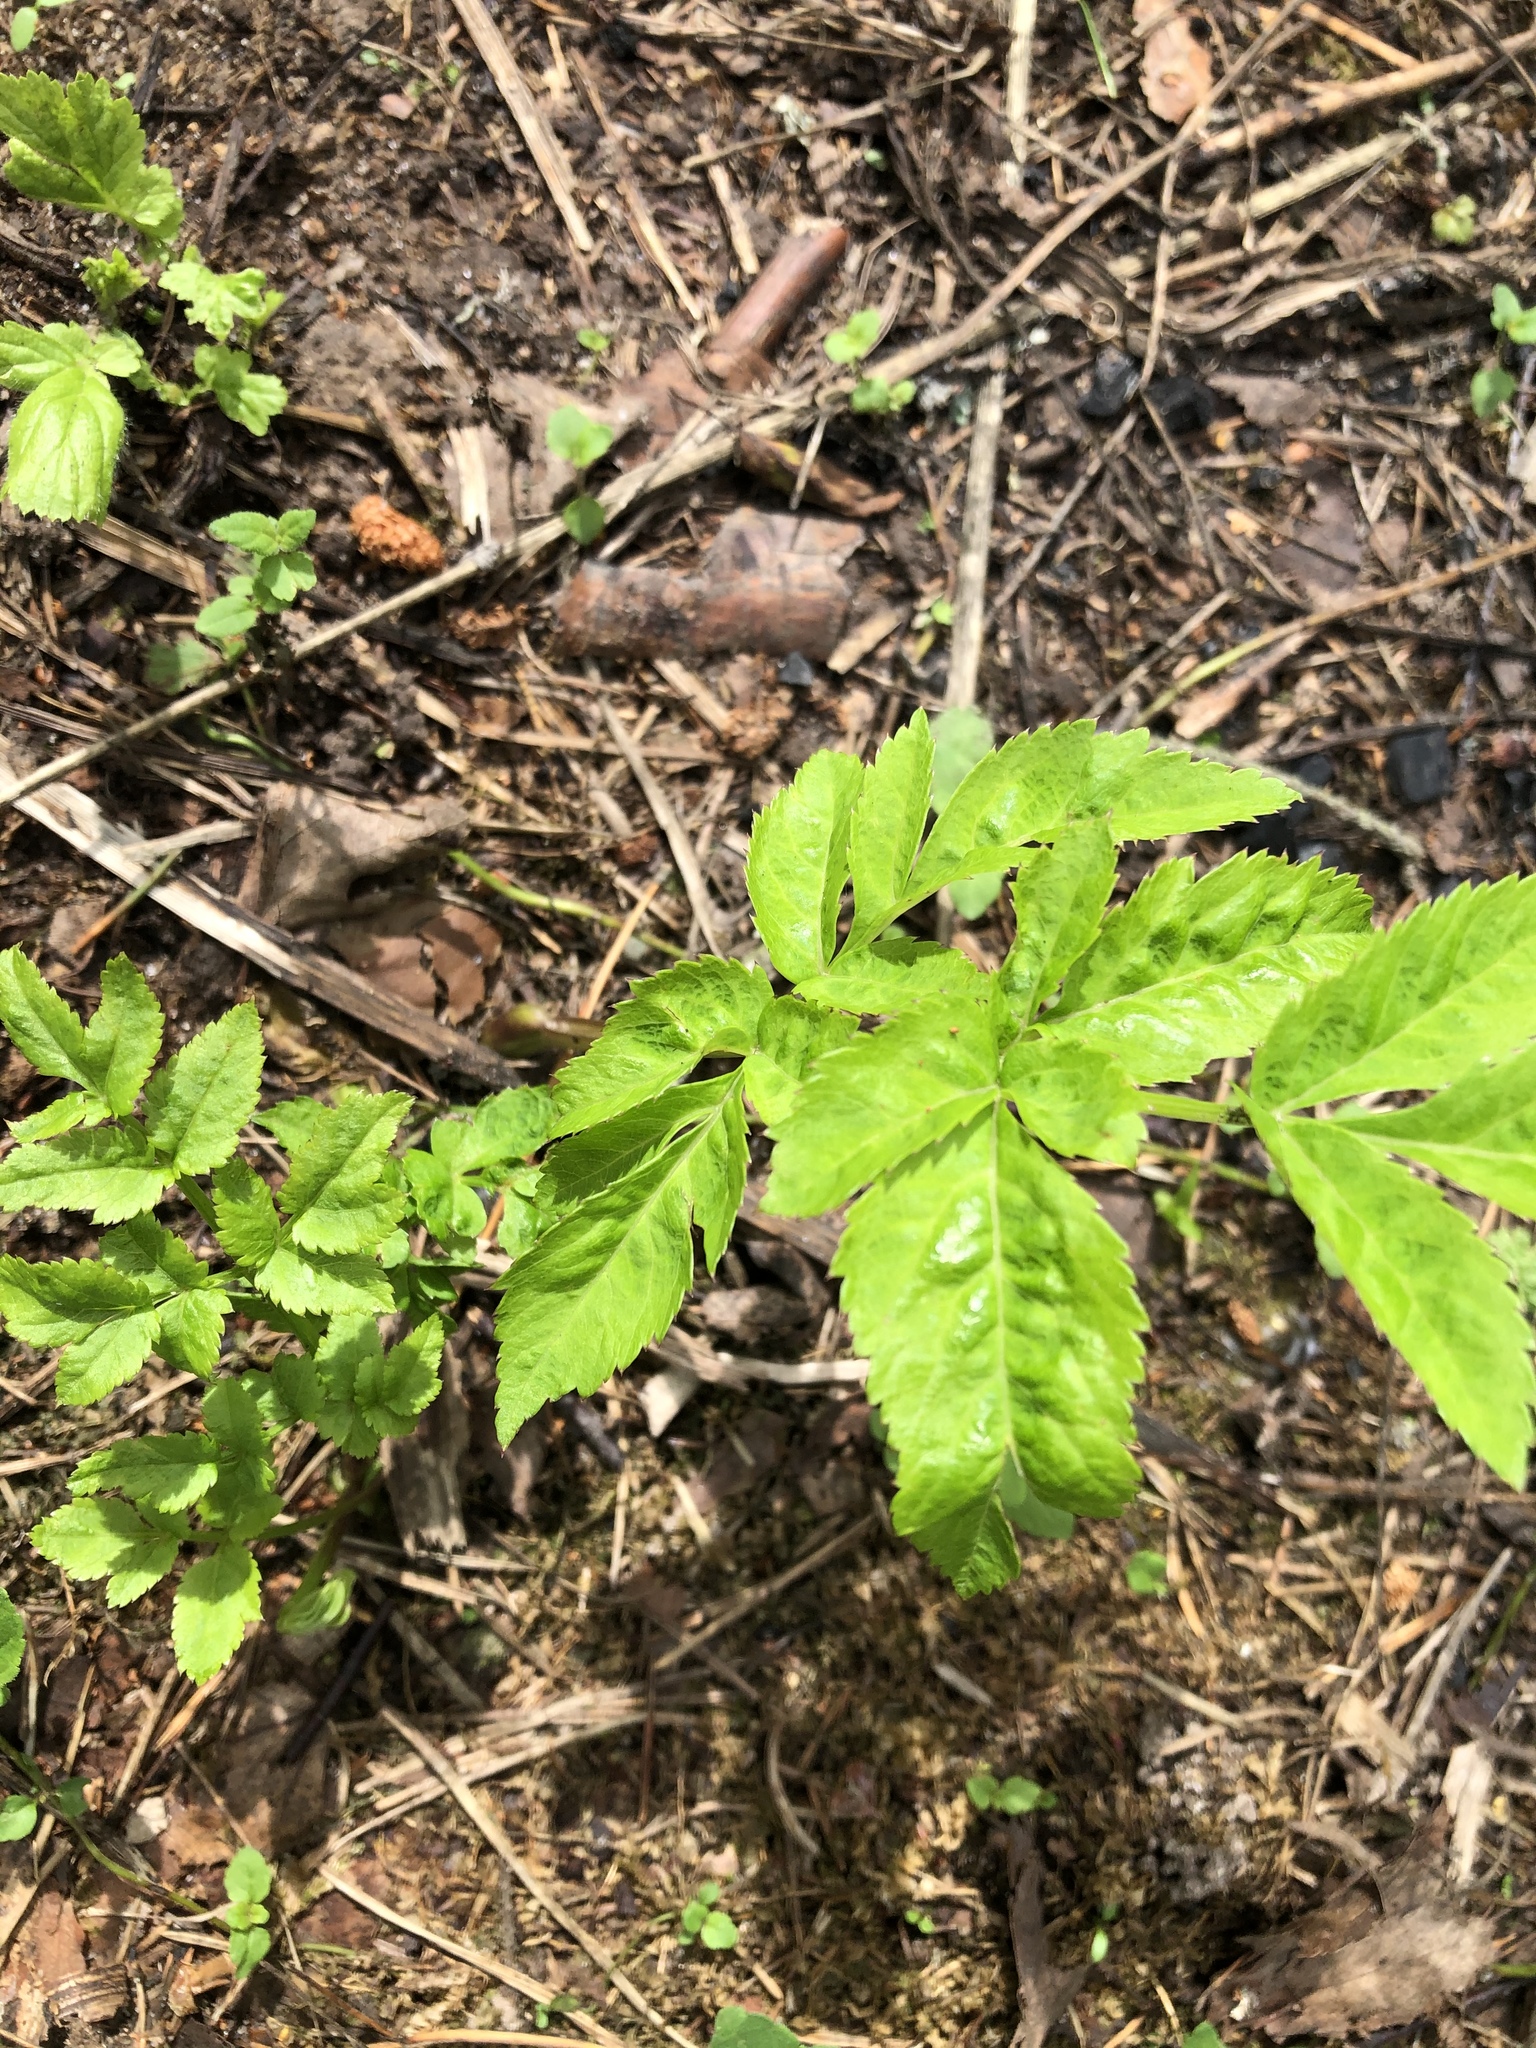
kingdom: Plantae
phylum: Tracheophyta
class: Magnoliopsida
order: Apiales
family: Apiaceae
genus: Aegopodium
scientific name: Aegopodium podagraria
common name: Ground-elder
